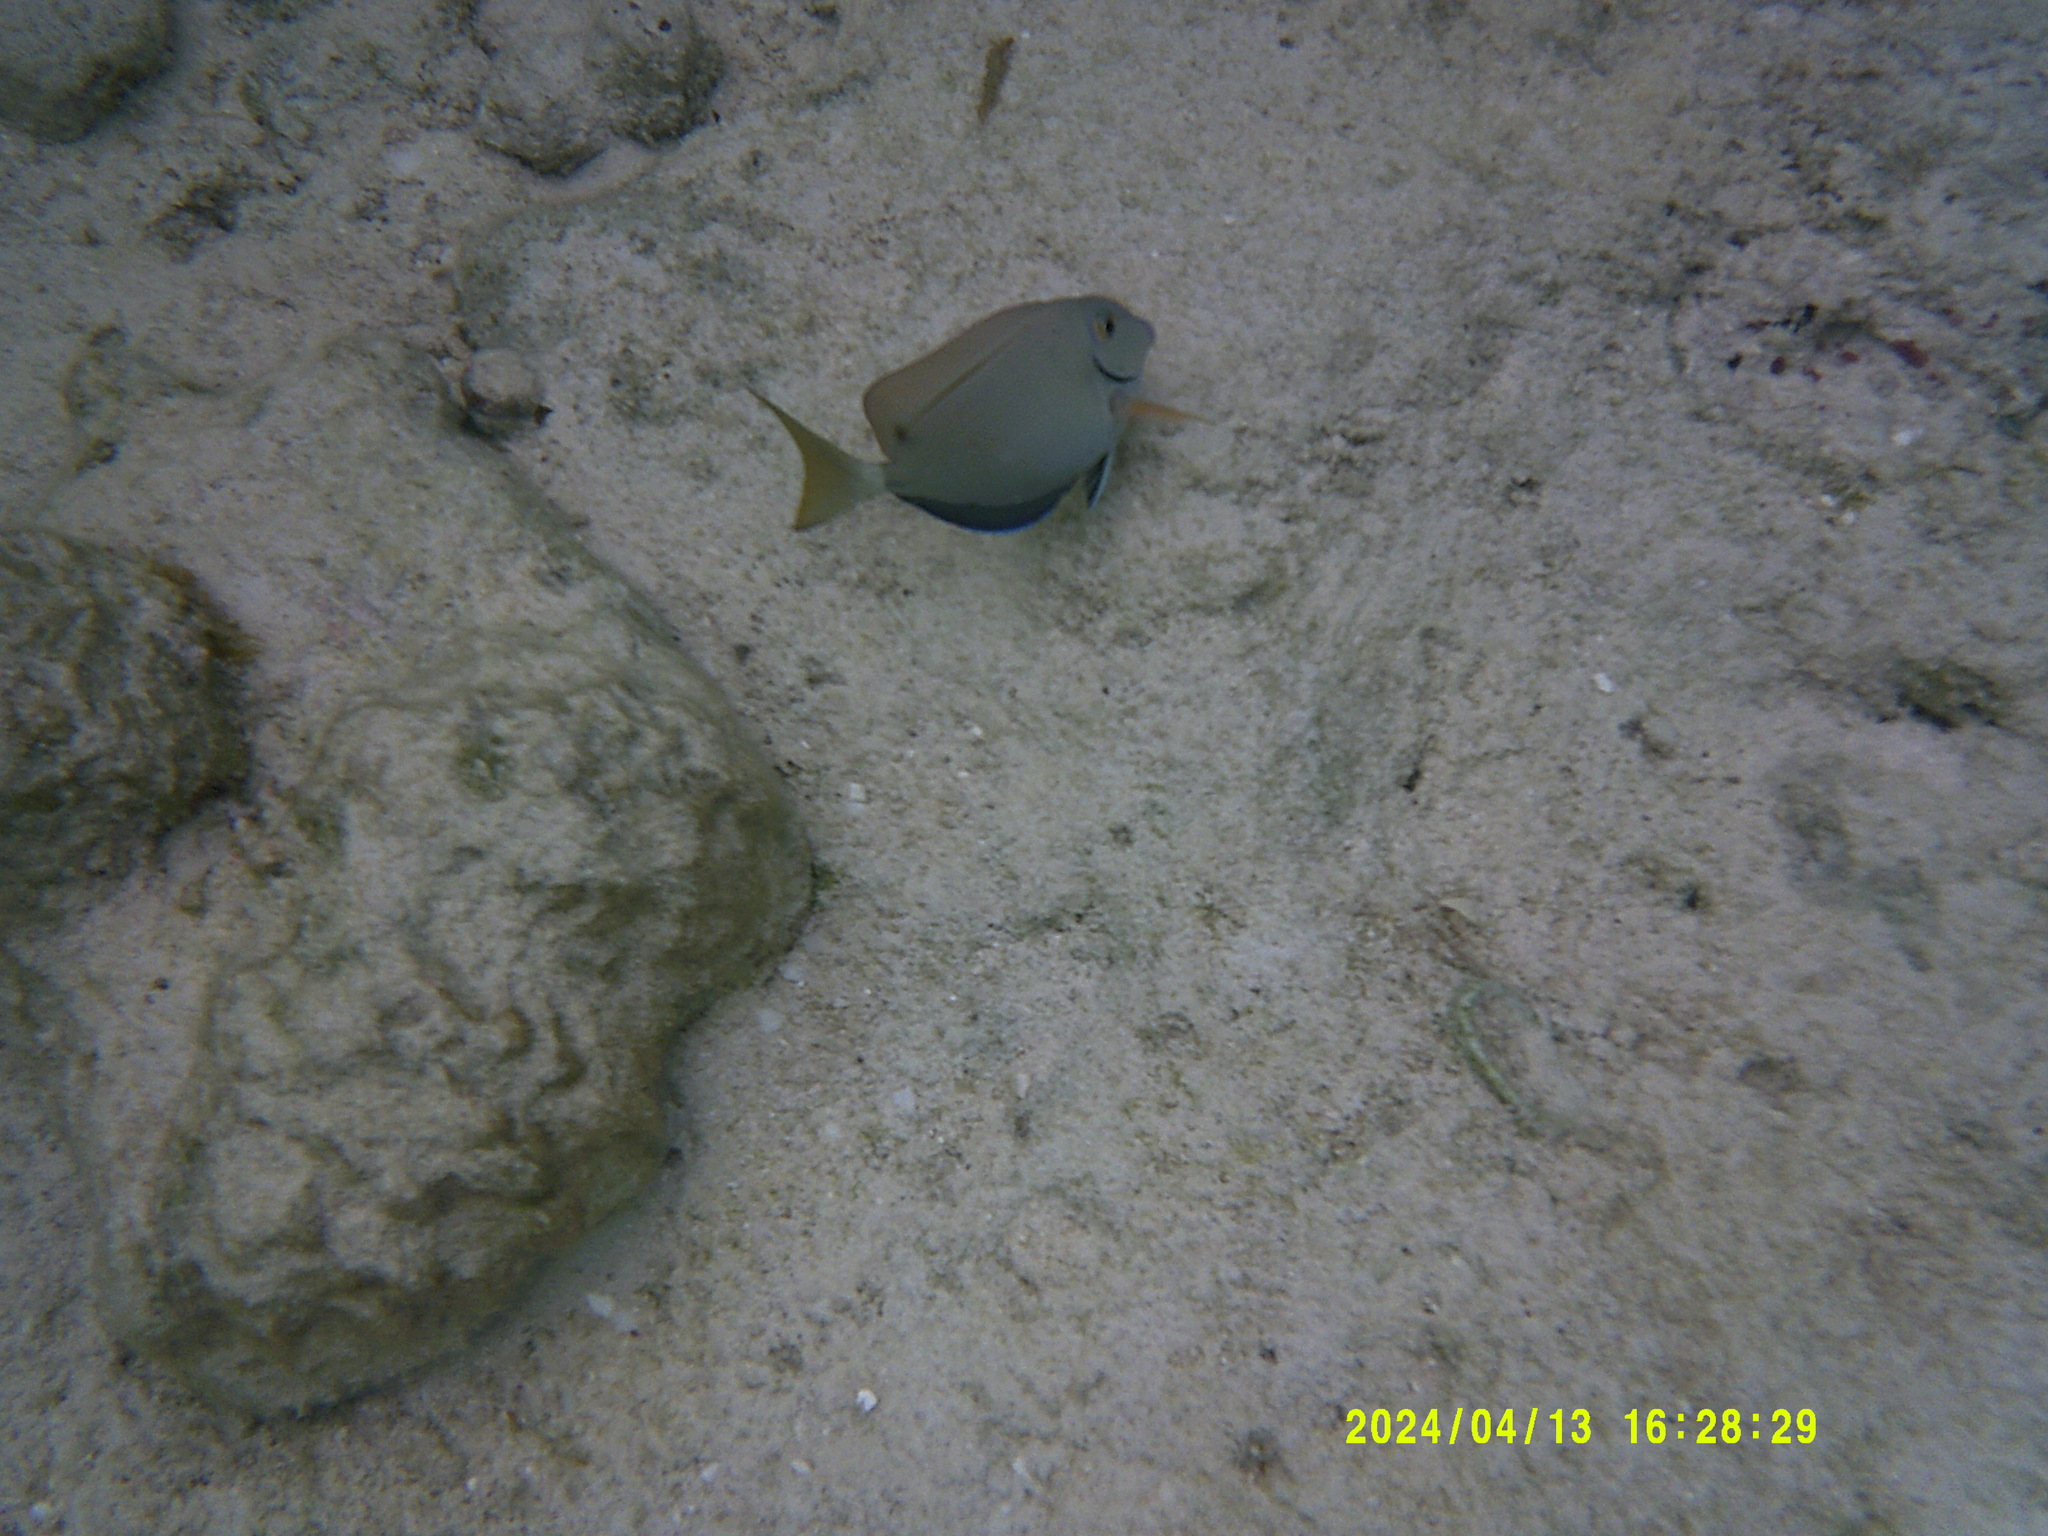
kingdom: Animalia
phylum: Chordata
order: Perciformes
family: Acanthuridae
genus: Acanthurus
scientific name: Acanthurus bahianus
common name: Ocean surgeon
